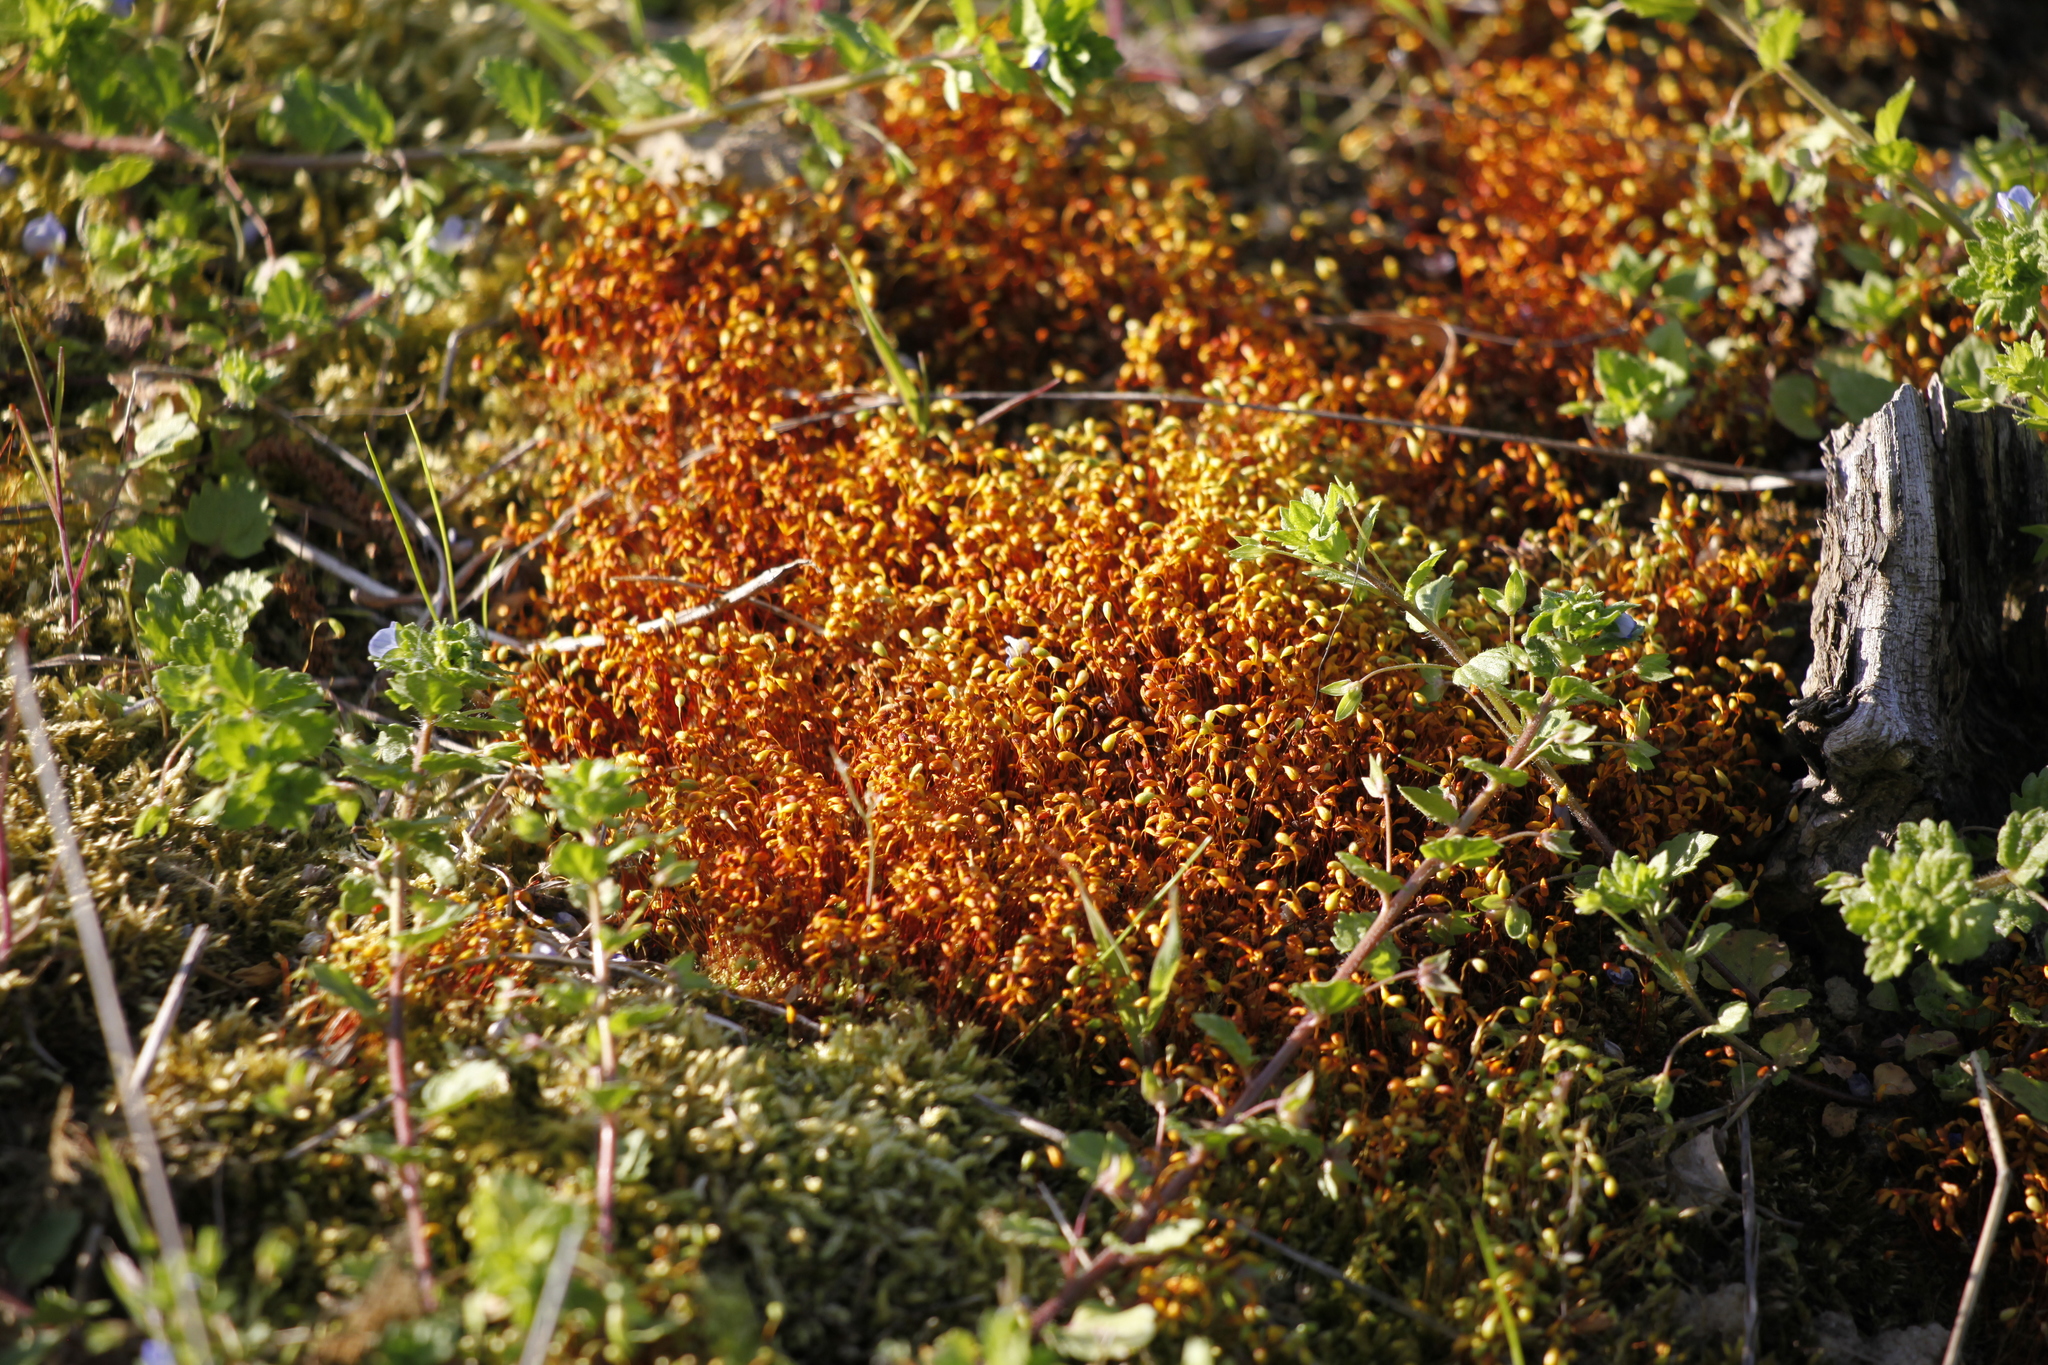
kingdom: Plantae
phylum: Bryophyta
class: Bryopsida
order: Funariales
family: Funariaceae
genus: Funaria
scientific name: Funaria hygrometrica
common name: Common cord moss
